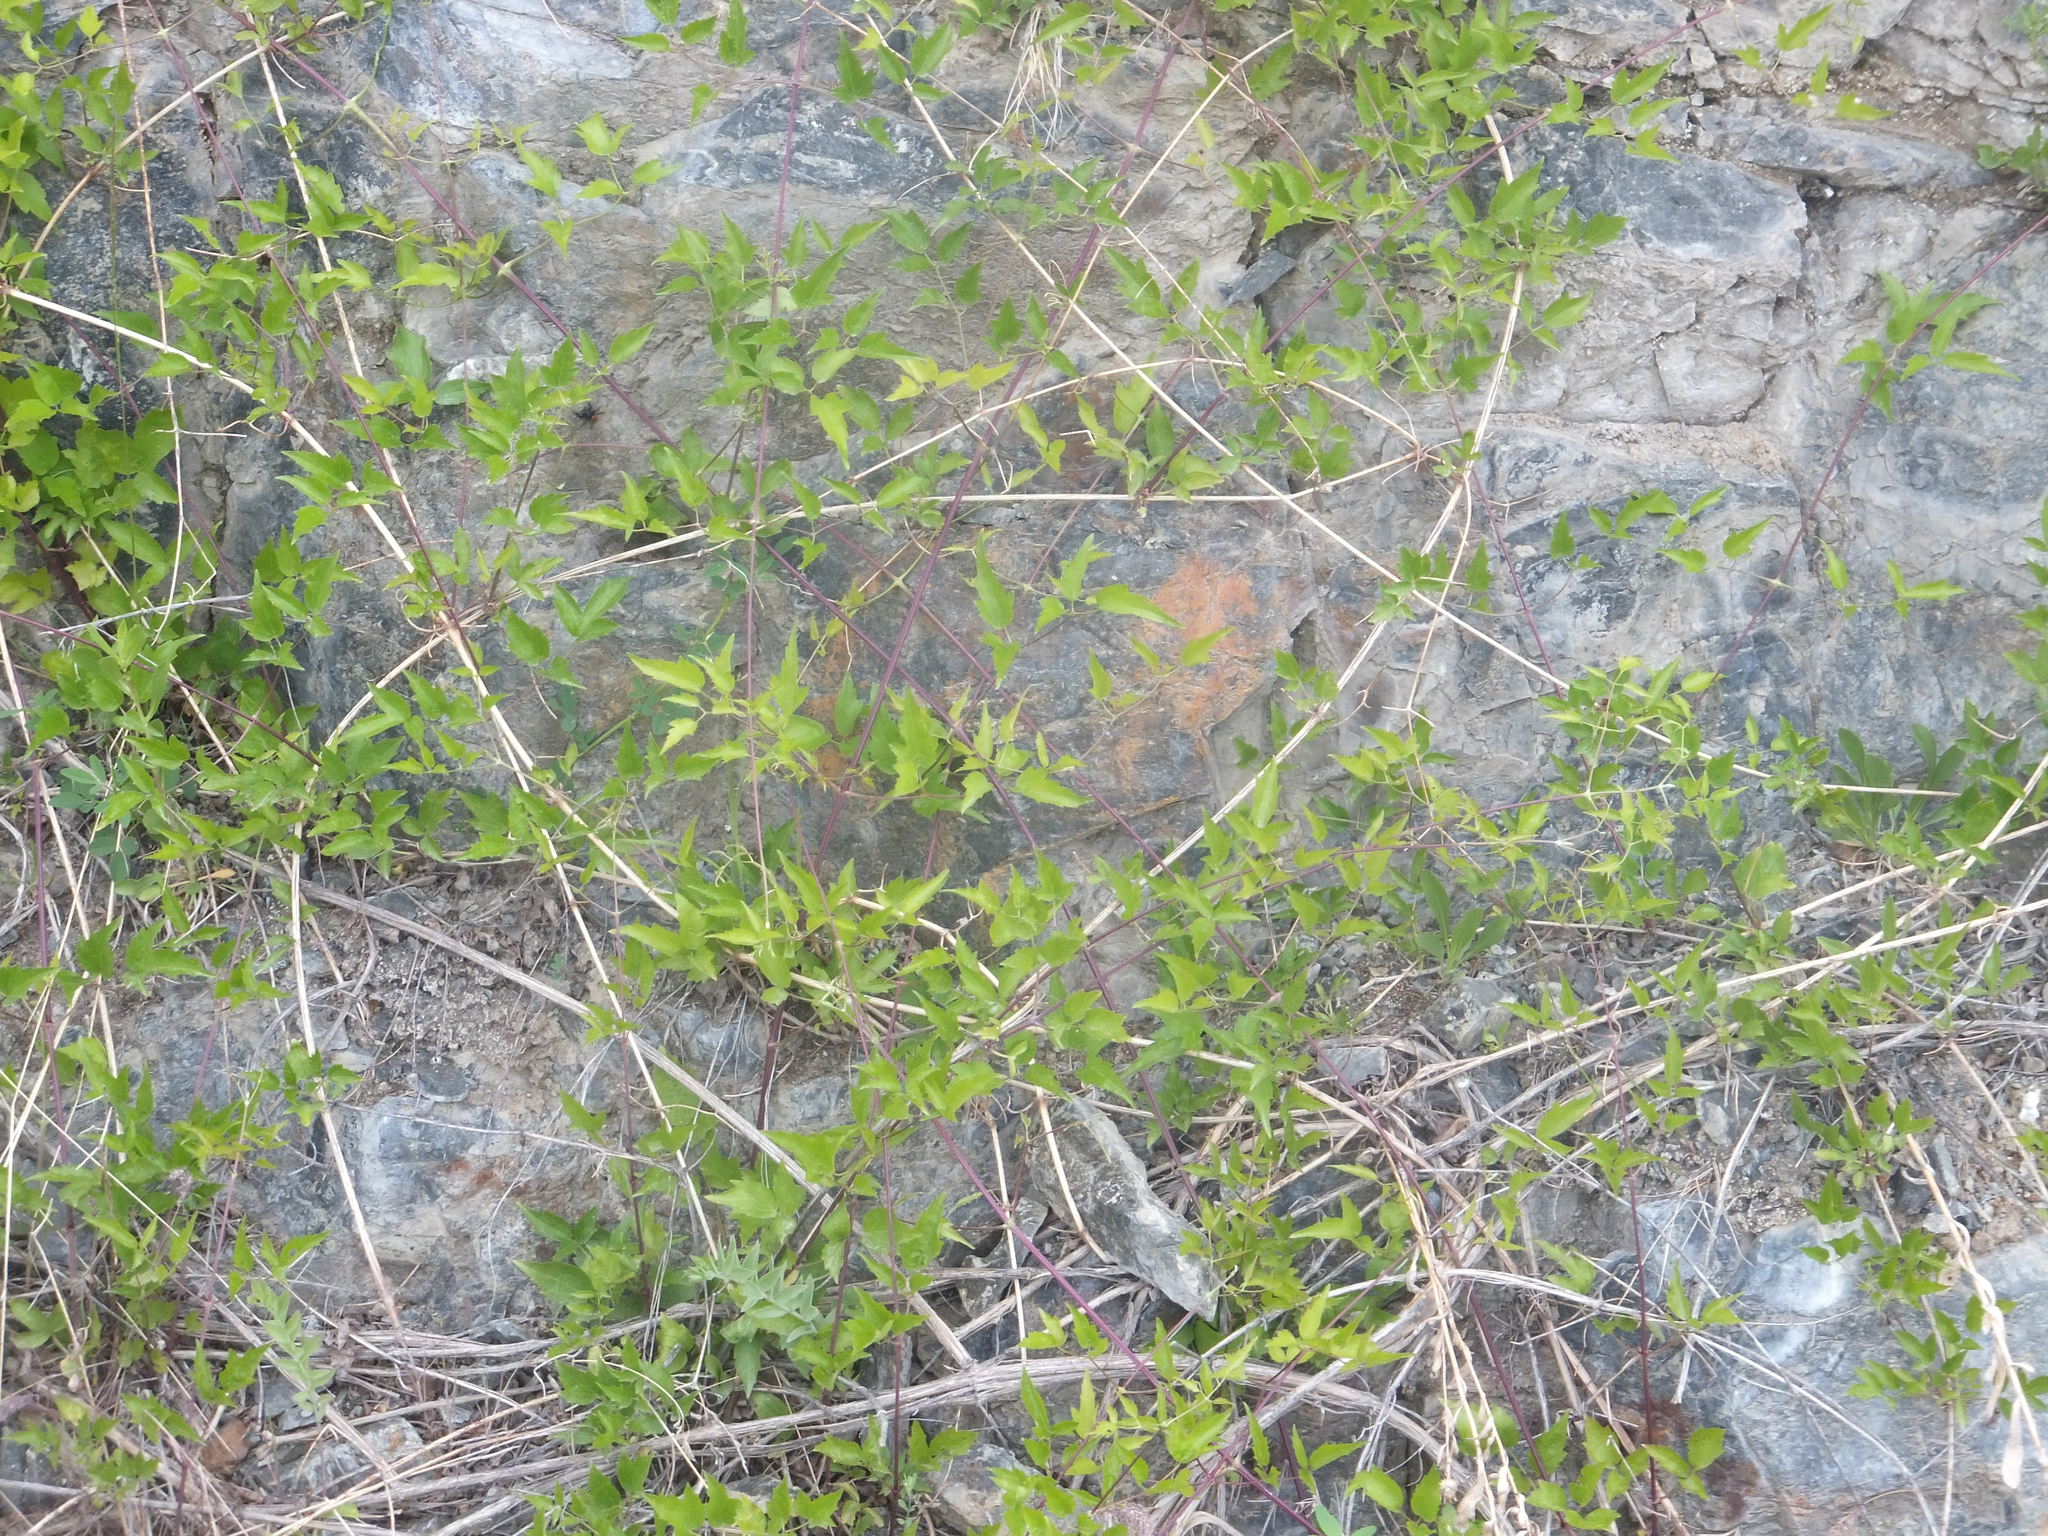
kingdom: Plantae
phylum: Tracheophyta
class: Magnoliopsida
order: Ranunculales
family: Ranunculaceae
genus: Clematis
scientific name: Clematis ligusticifolia
